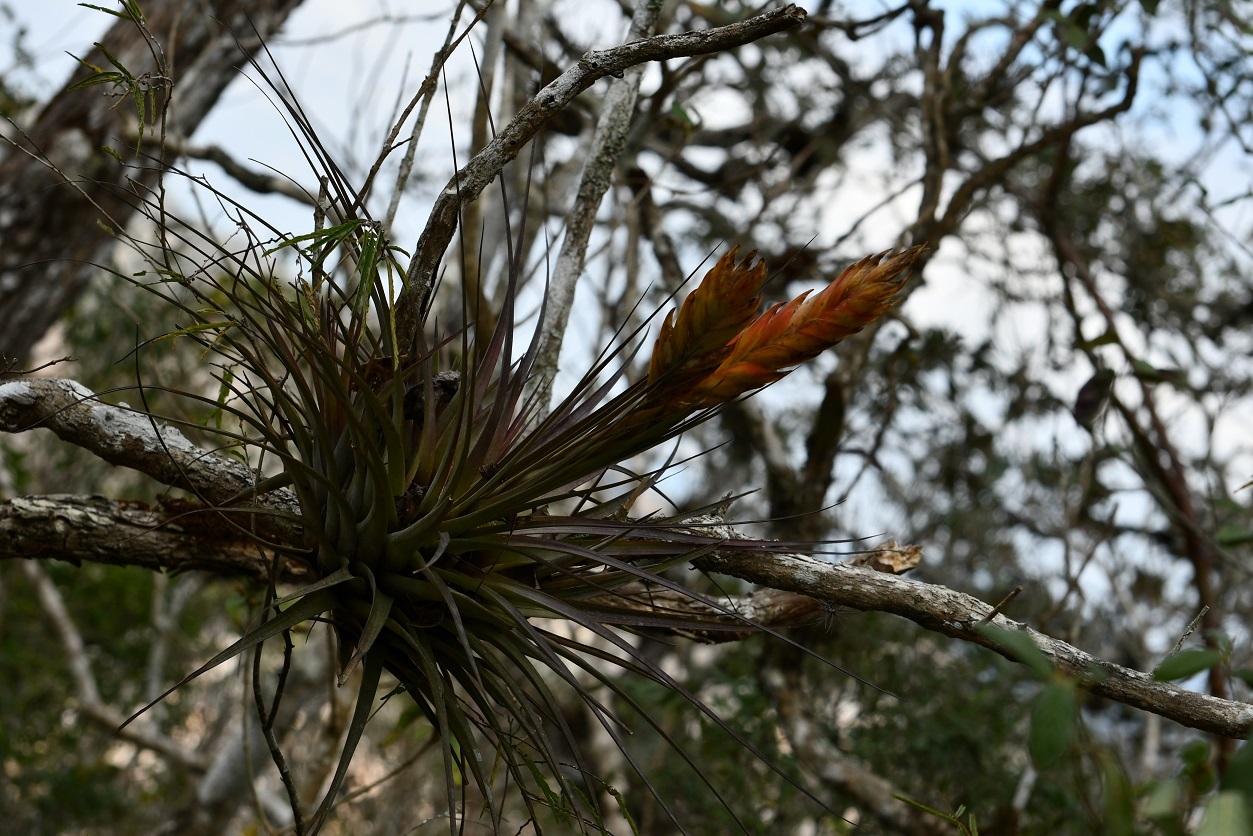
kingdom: Plantae
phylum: Tracheophyta
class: Liliopsida
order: Poales
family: Bromeliaceae
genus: Tillandsia
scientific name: Tillandsia zoquensis
